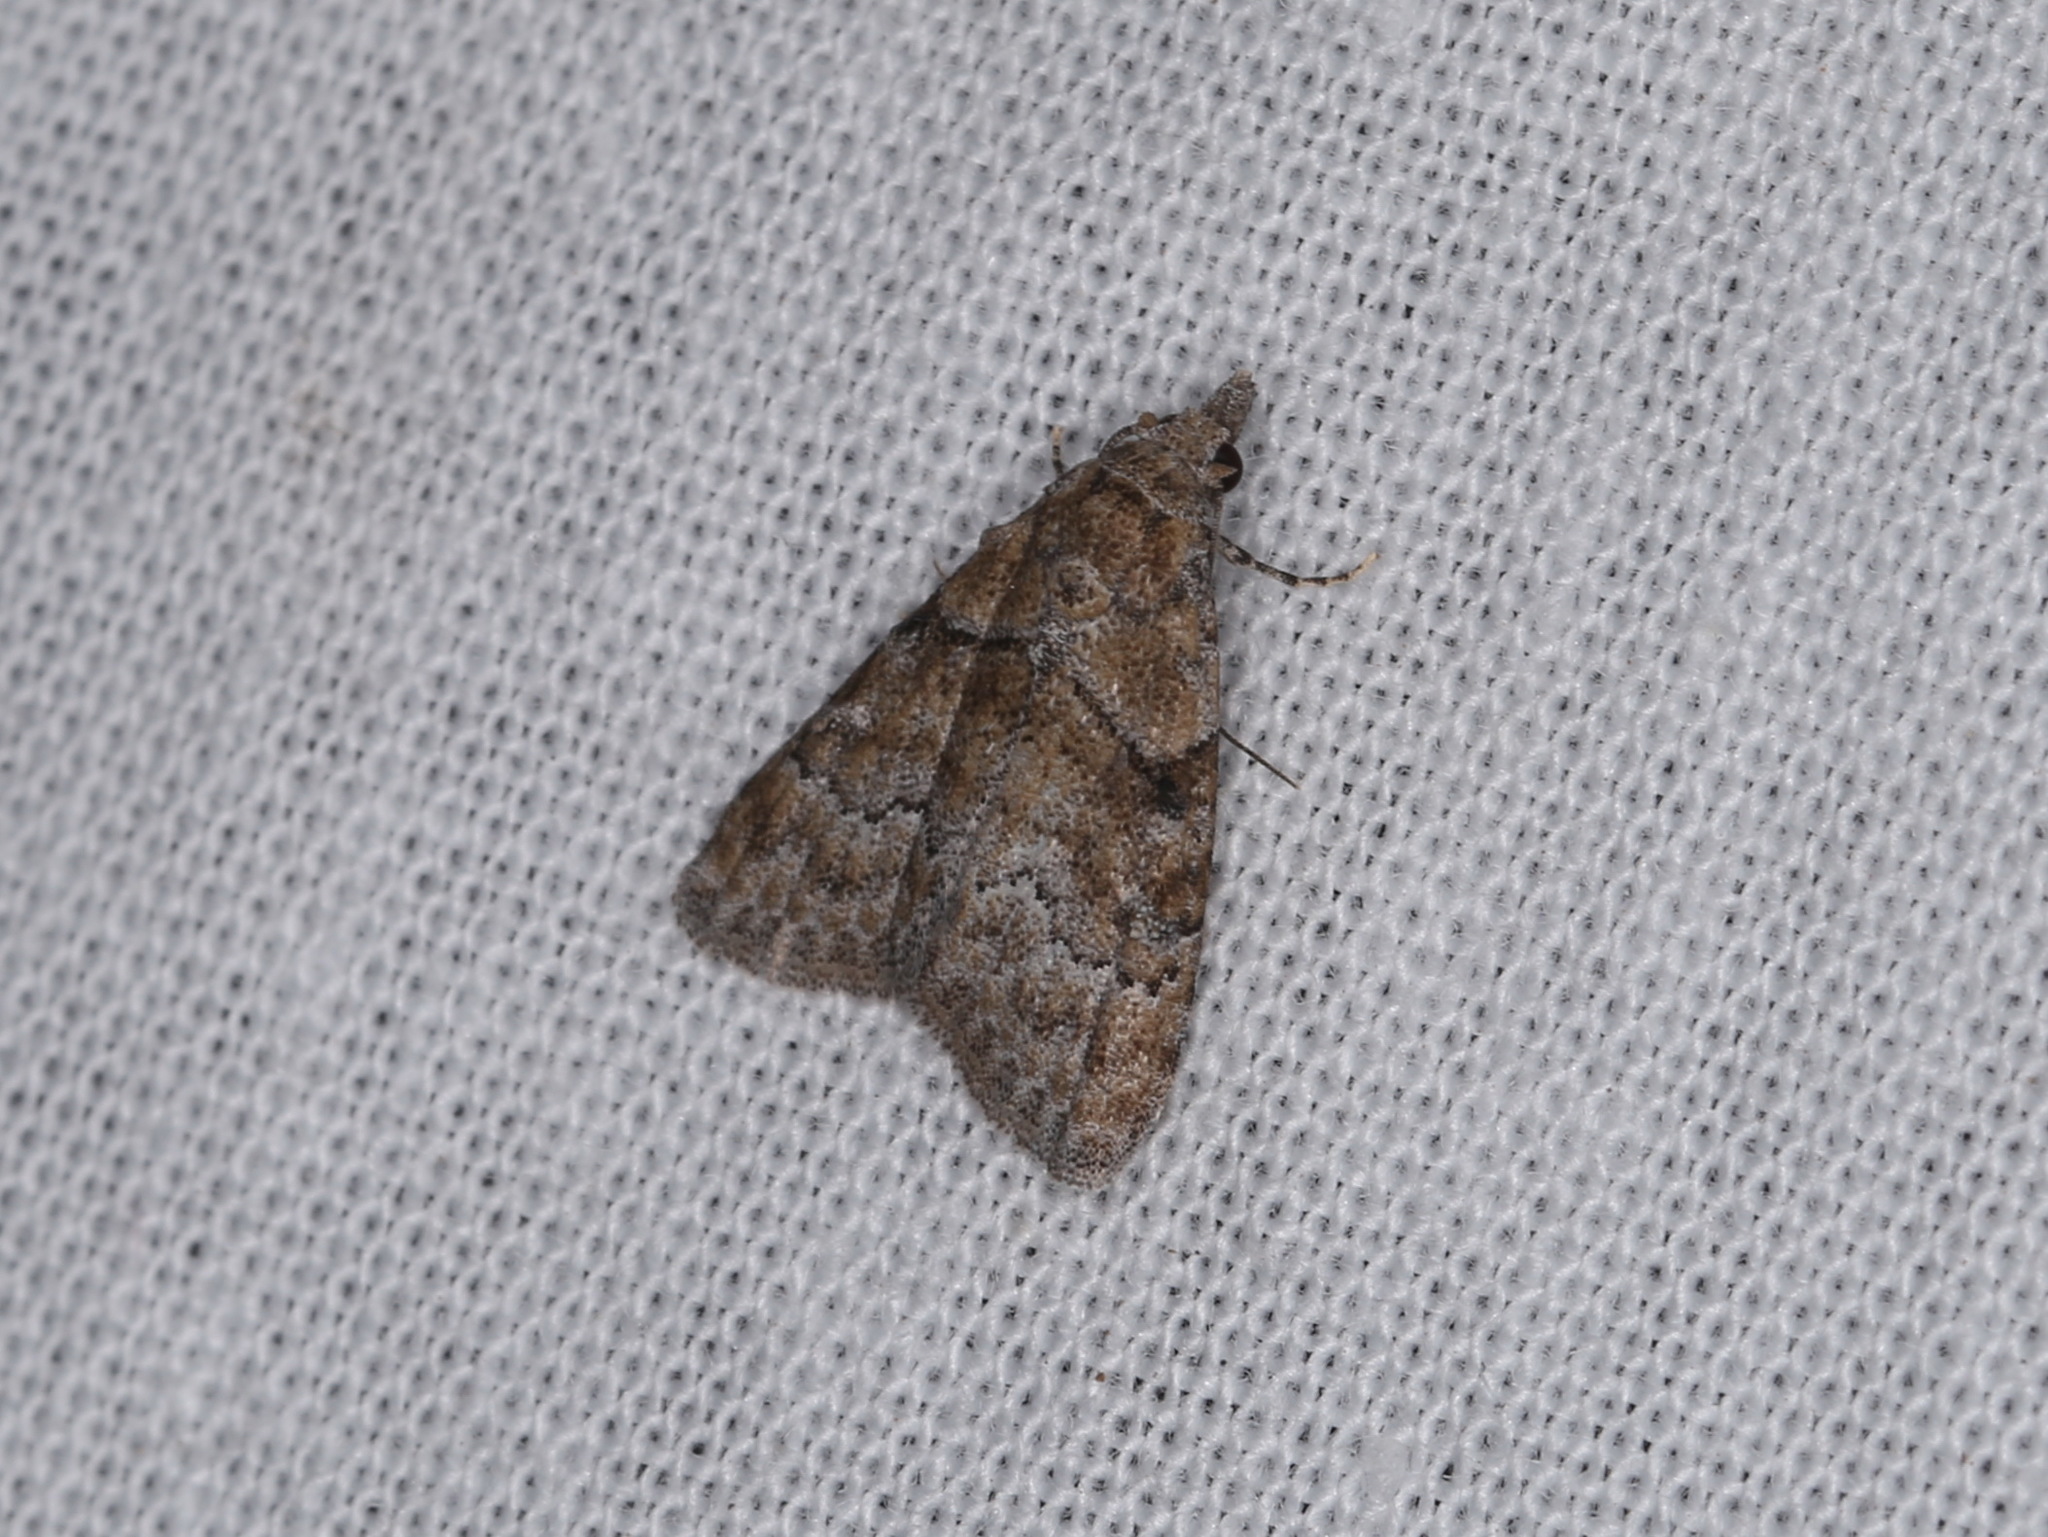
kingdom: Animalia
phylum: Arthropoda
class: Insecta
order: Lepidoptera
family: Nolidae
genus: Nola
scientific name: Nola pycnopasta
